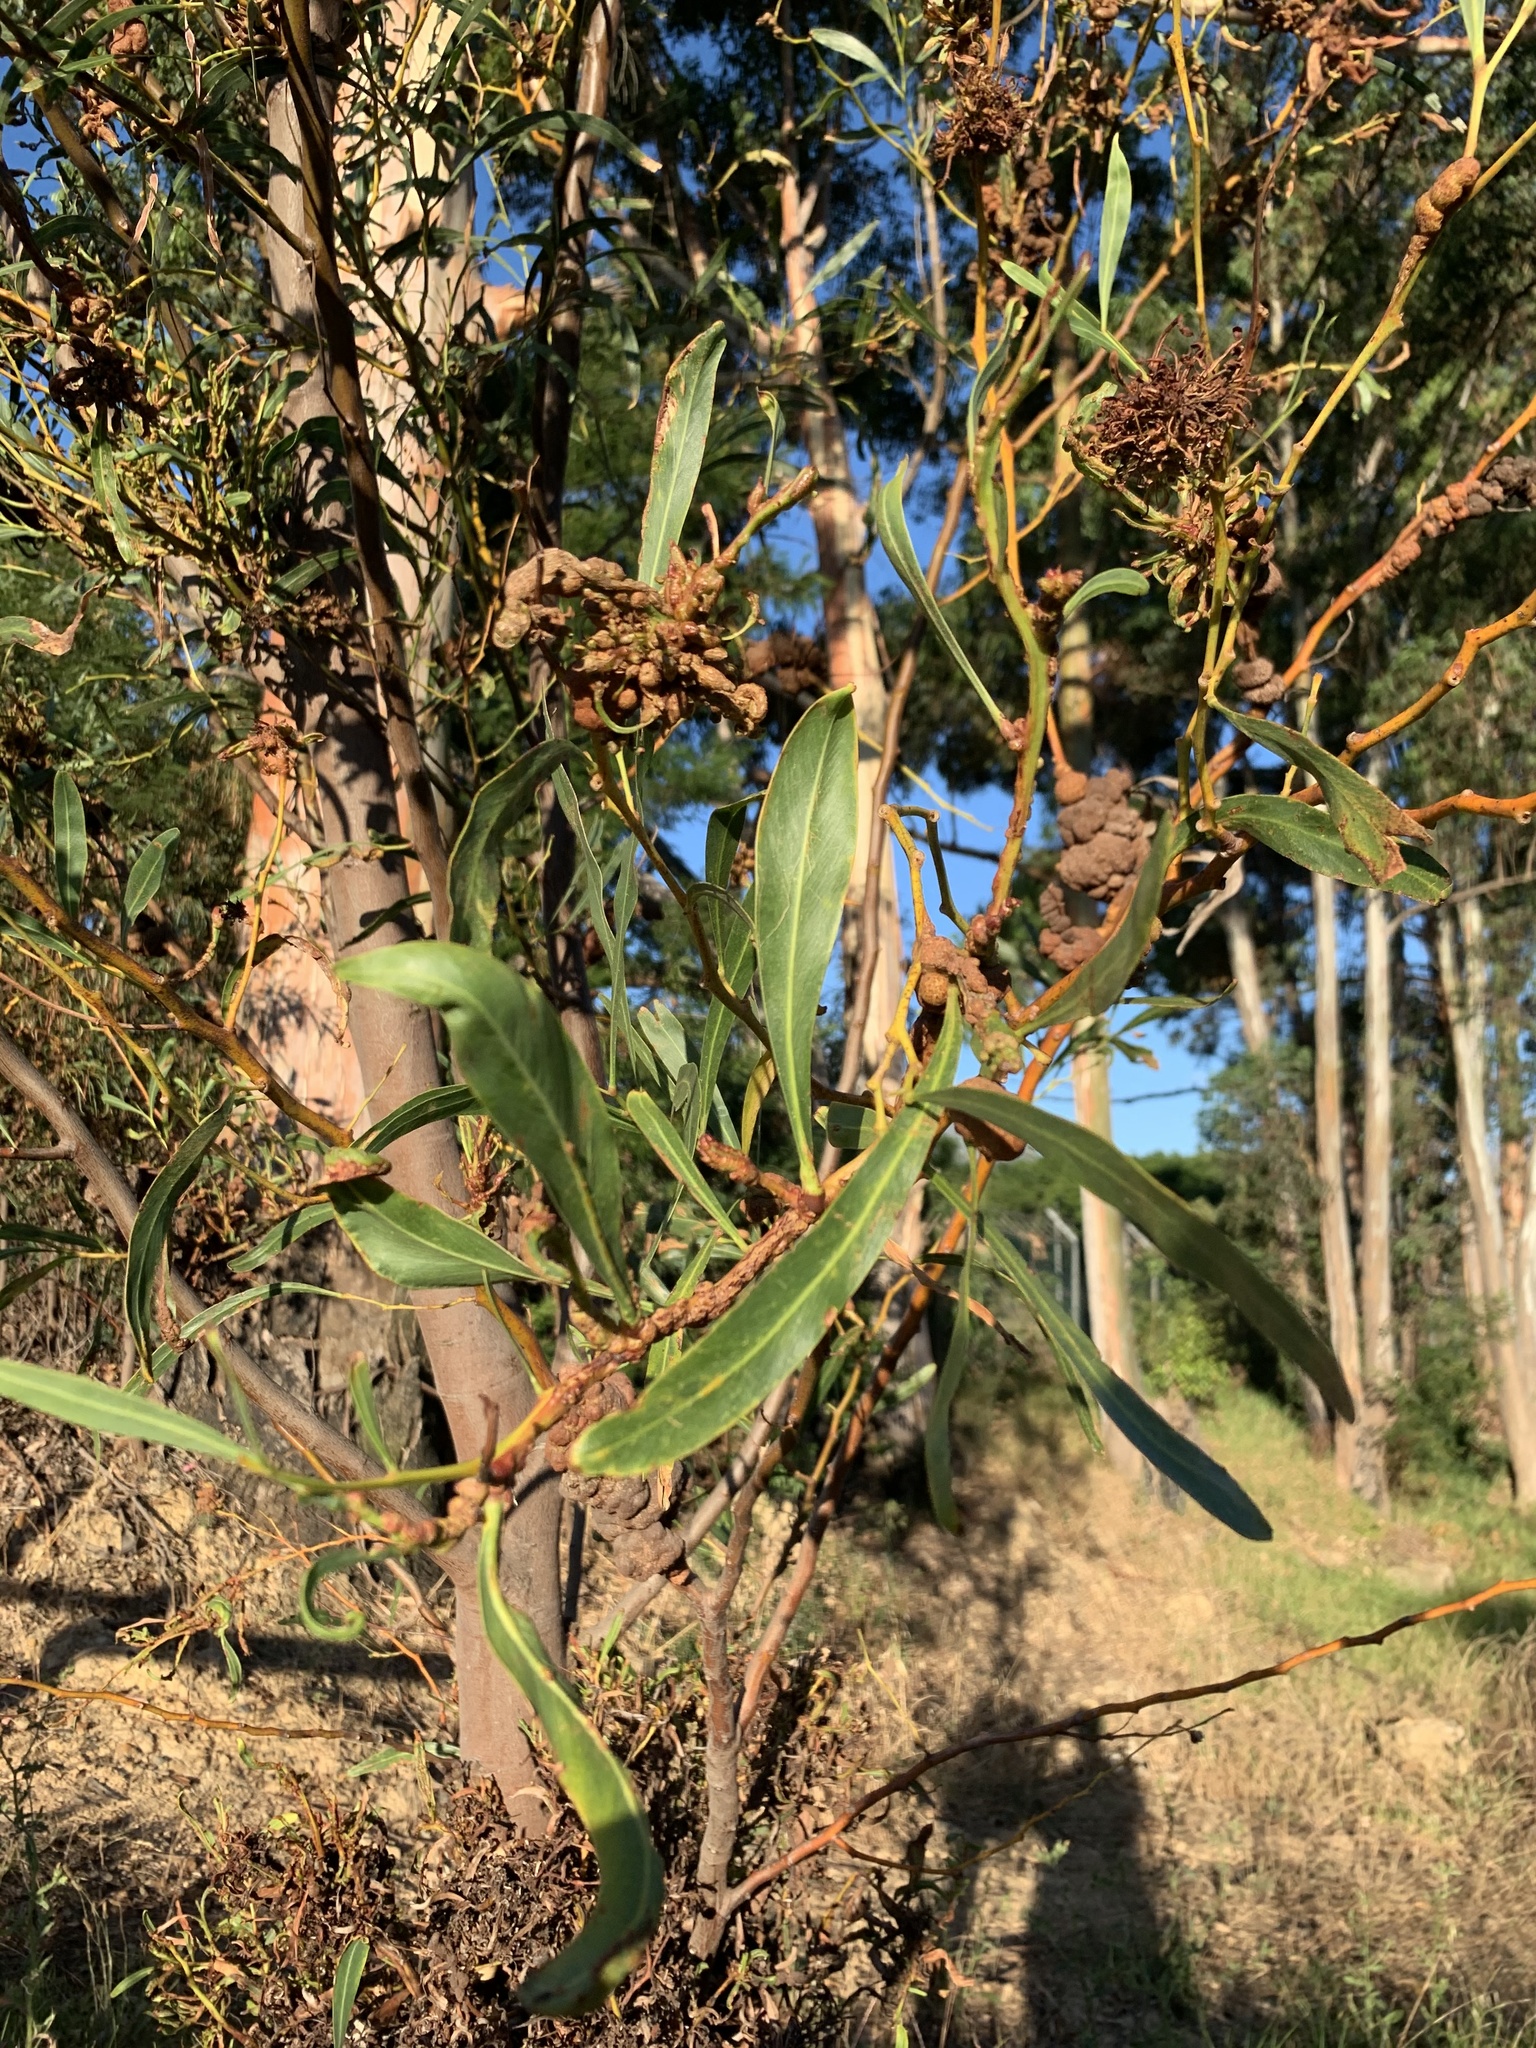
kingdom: Plantae
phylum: Tracheophyta
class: Magnoliopsida
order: Fabales
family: Fabaceae
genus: Acacia
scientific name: Acacia saligna
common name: Orange wattle
